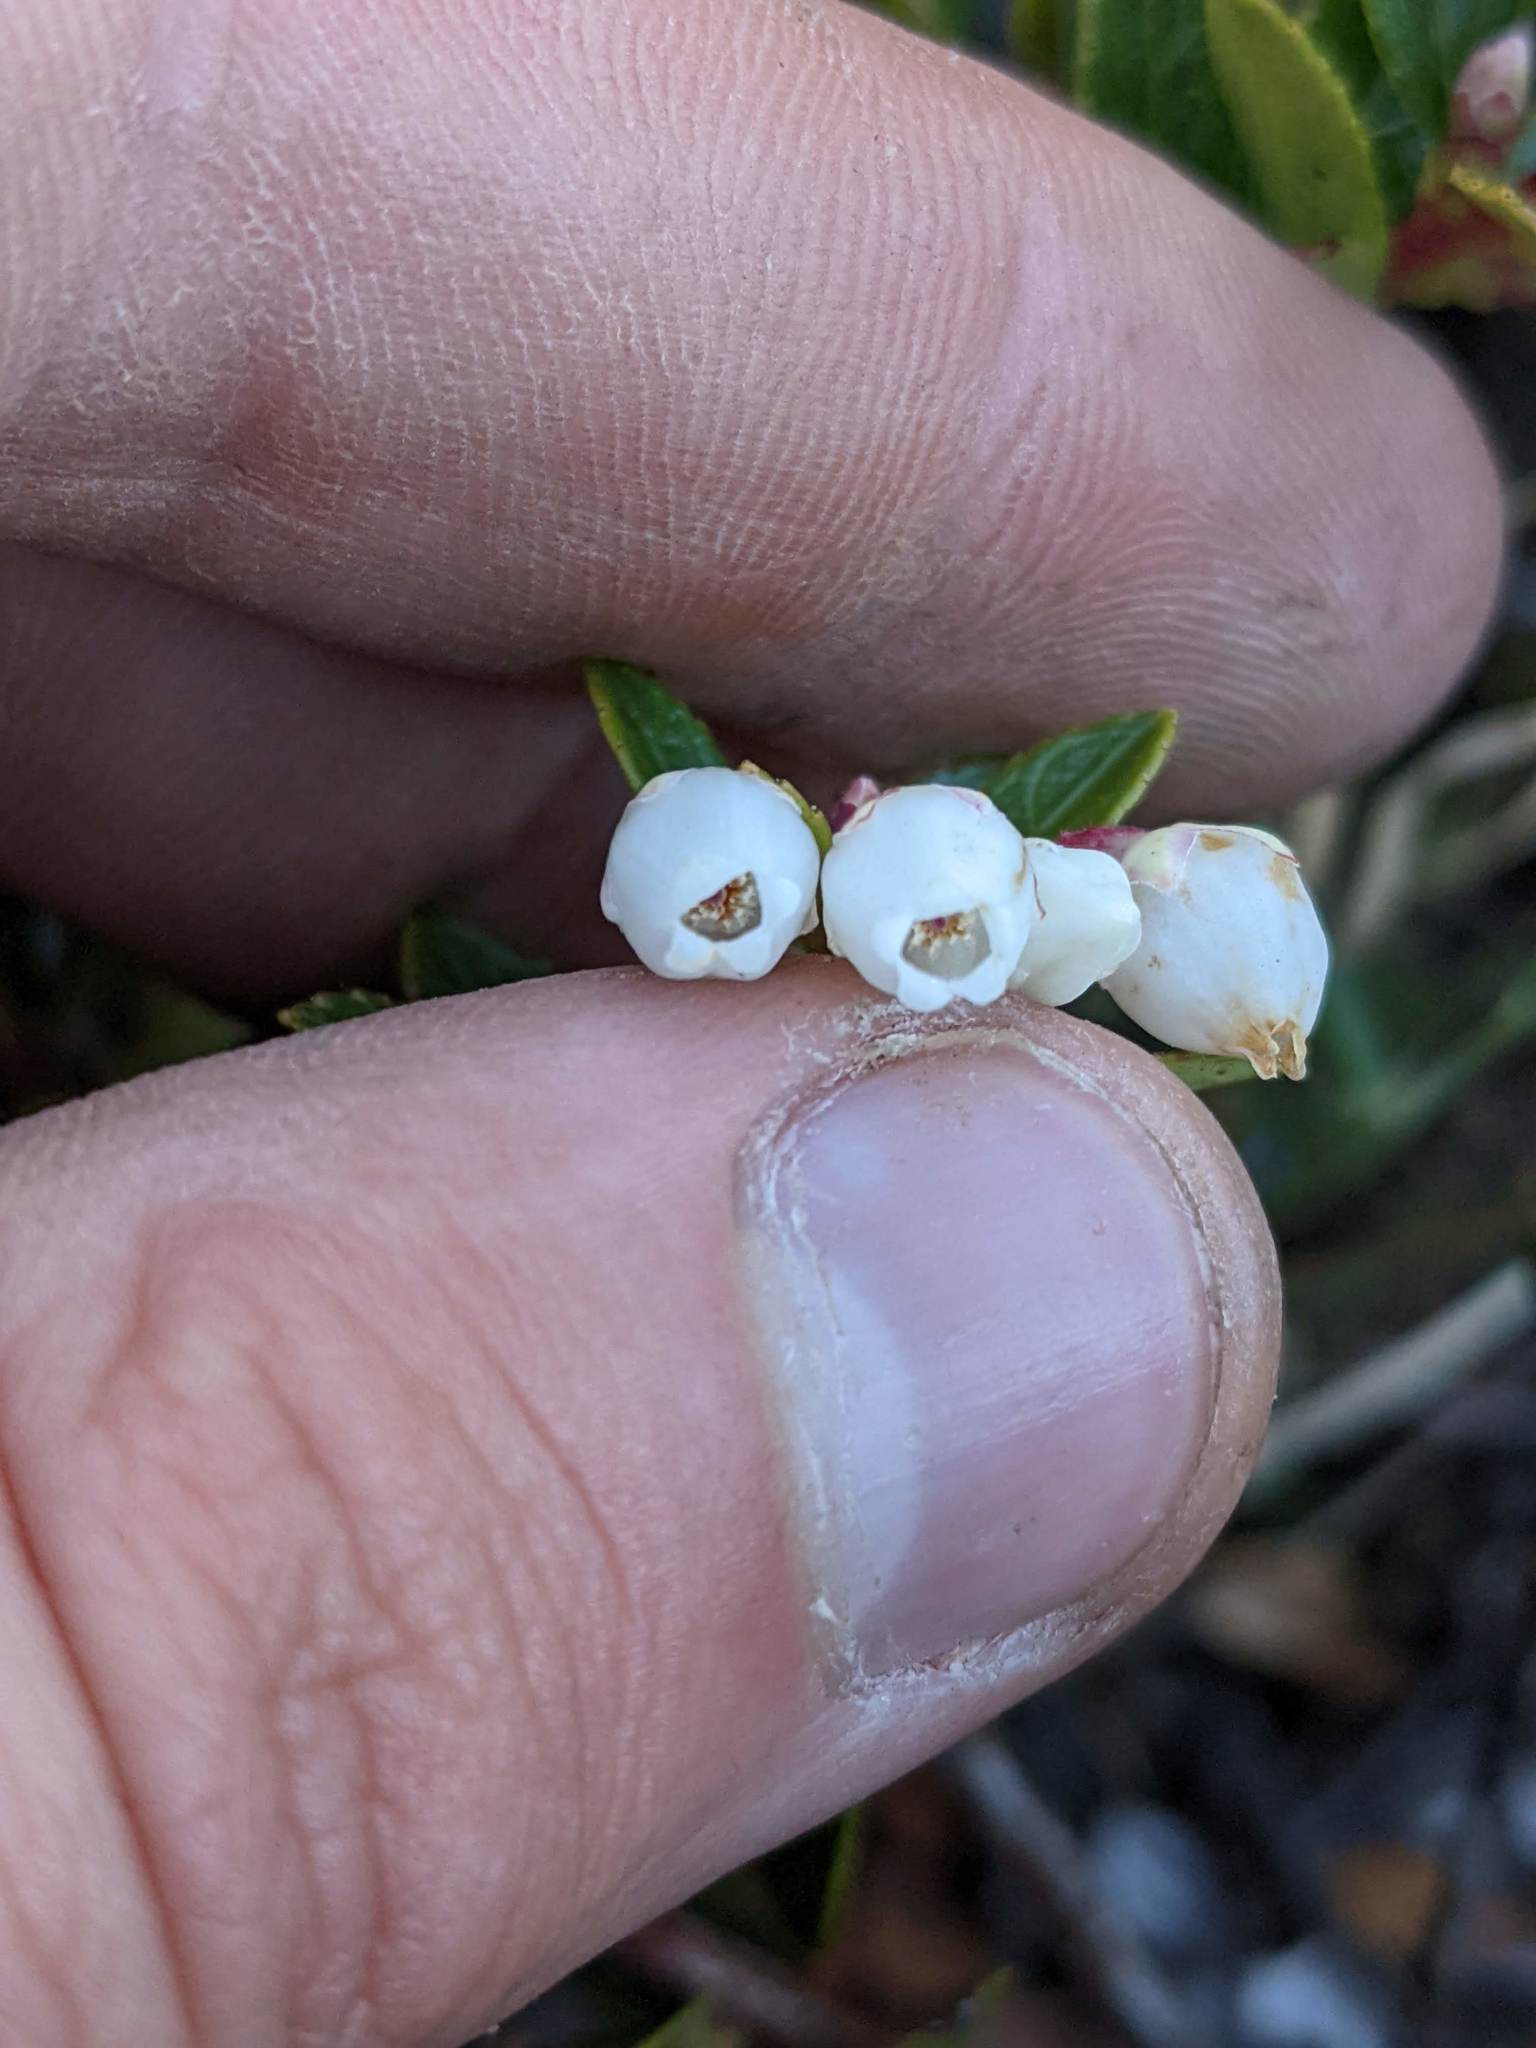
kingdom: Plantae
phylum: Tracheophyta
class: Magnoliopsida
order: Ericales
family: Ericaceae
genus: Gaultheria
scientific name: Gaultheria myrsinoides
